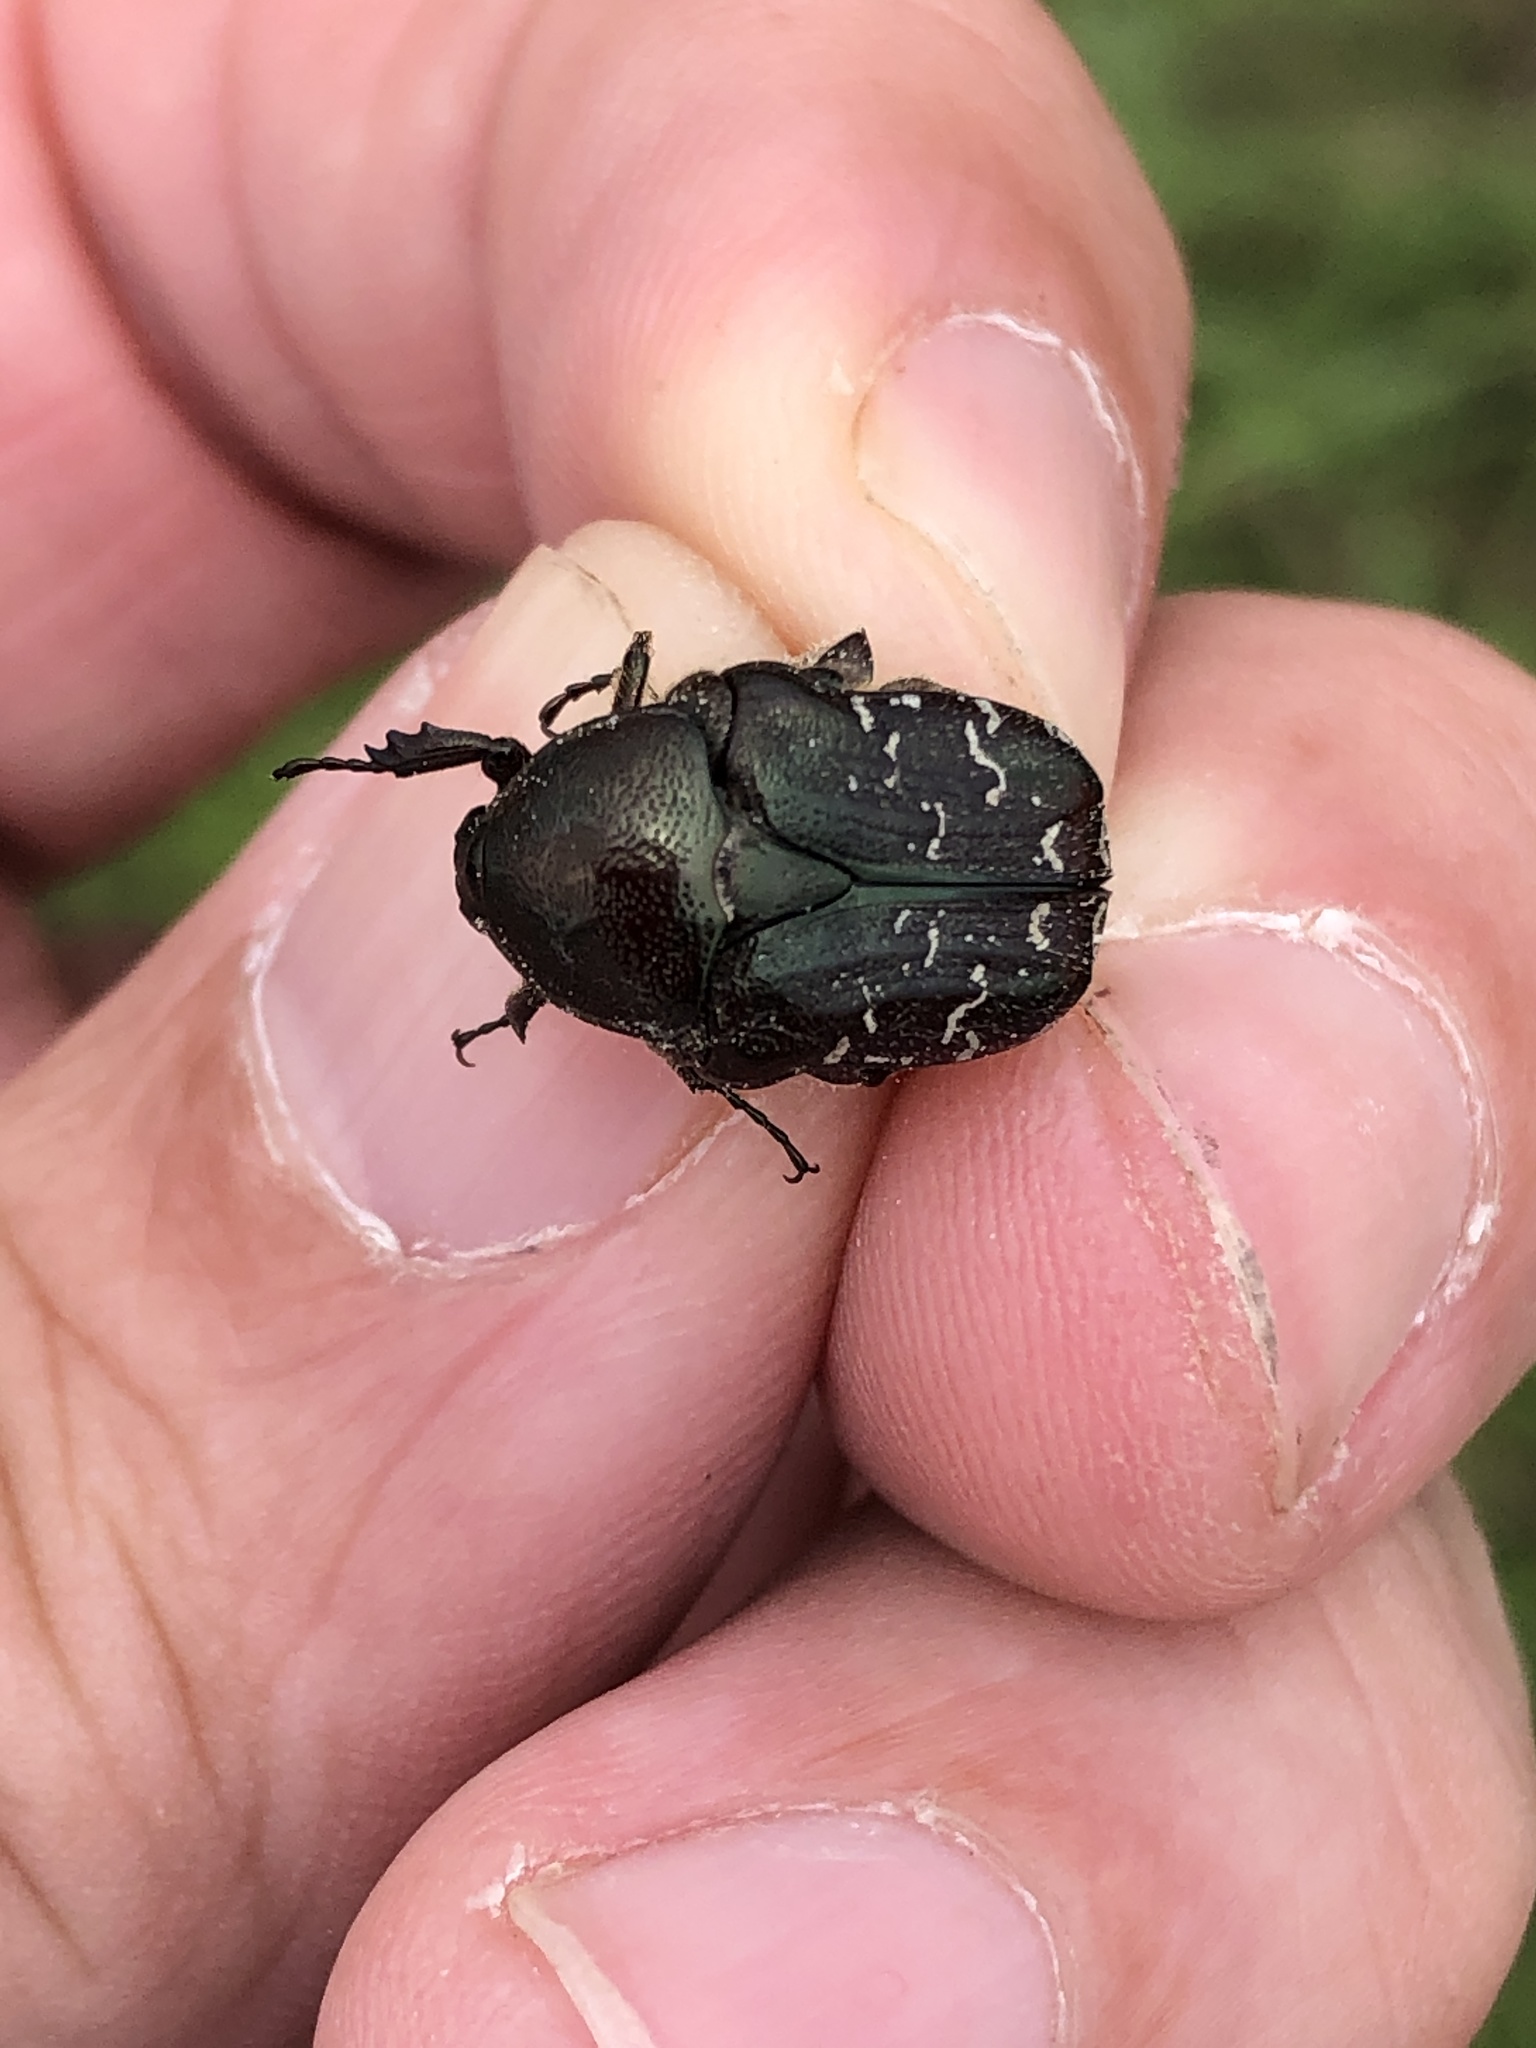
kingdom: Animalia
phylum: Arthropoda
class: Insecta
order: Coleoptera
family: Scarabaeidae
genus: Euphoria
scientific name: Euphoria sepulcralis
